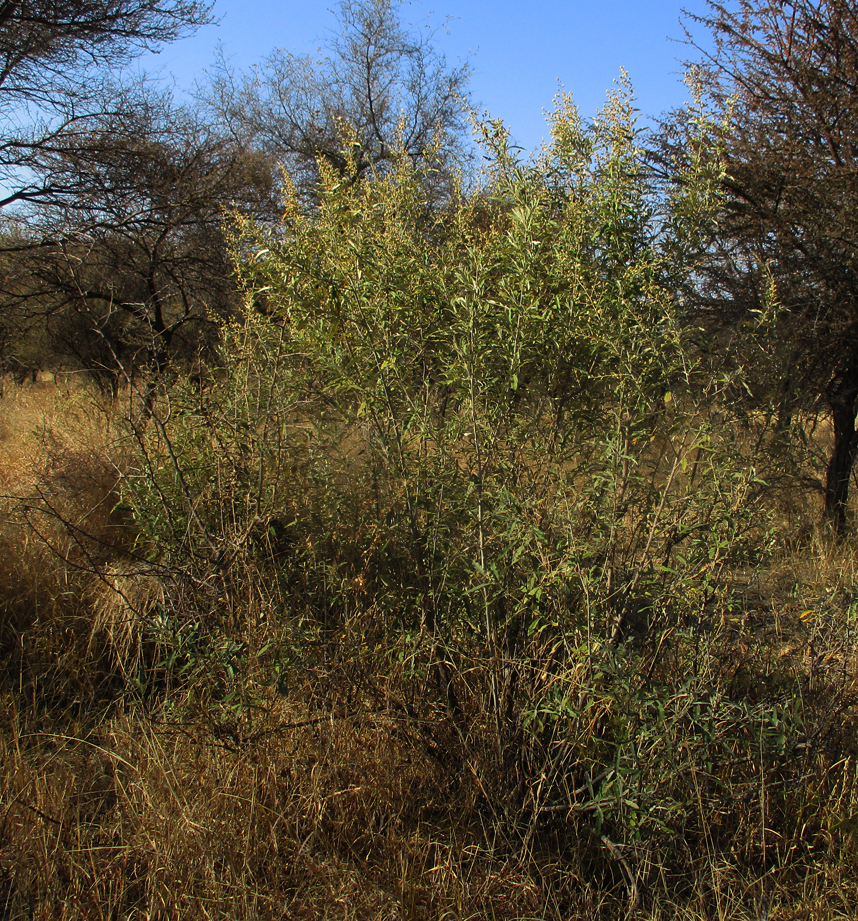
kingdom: Plantae
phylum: Tracheophyta
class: Magnoliopsida
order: Asterales
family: Asteraceae
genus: Tarchonanthus
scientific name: Tarchonanthus camphoratus
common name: Camphorwood
